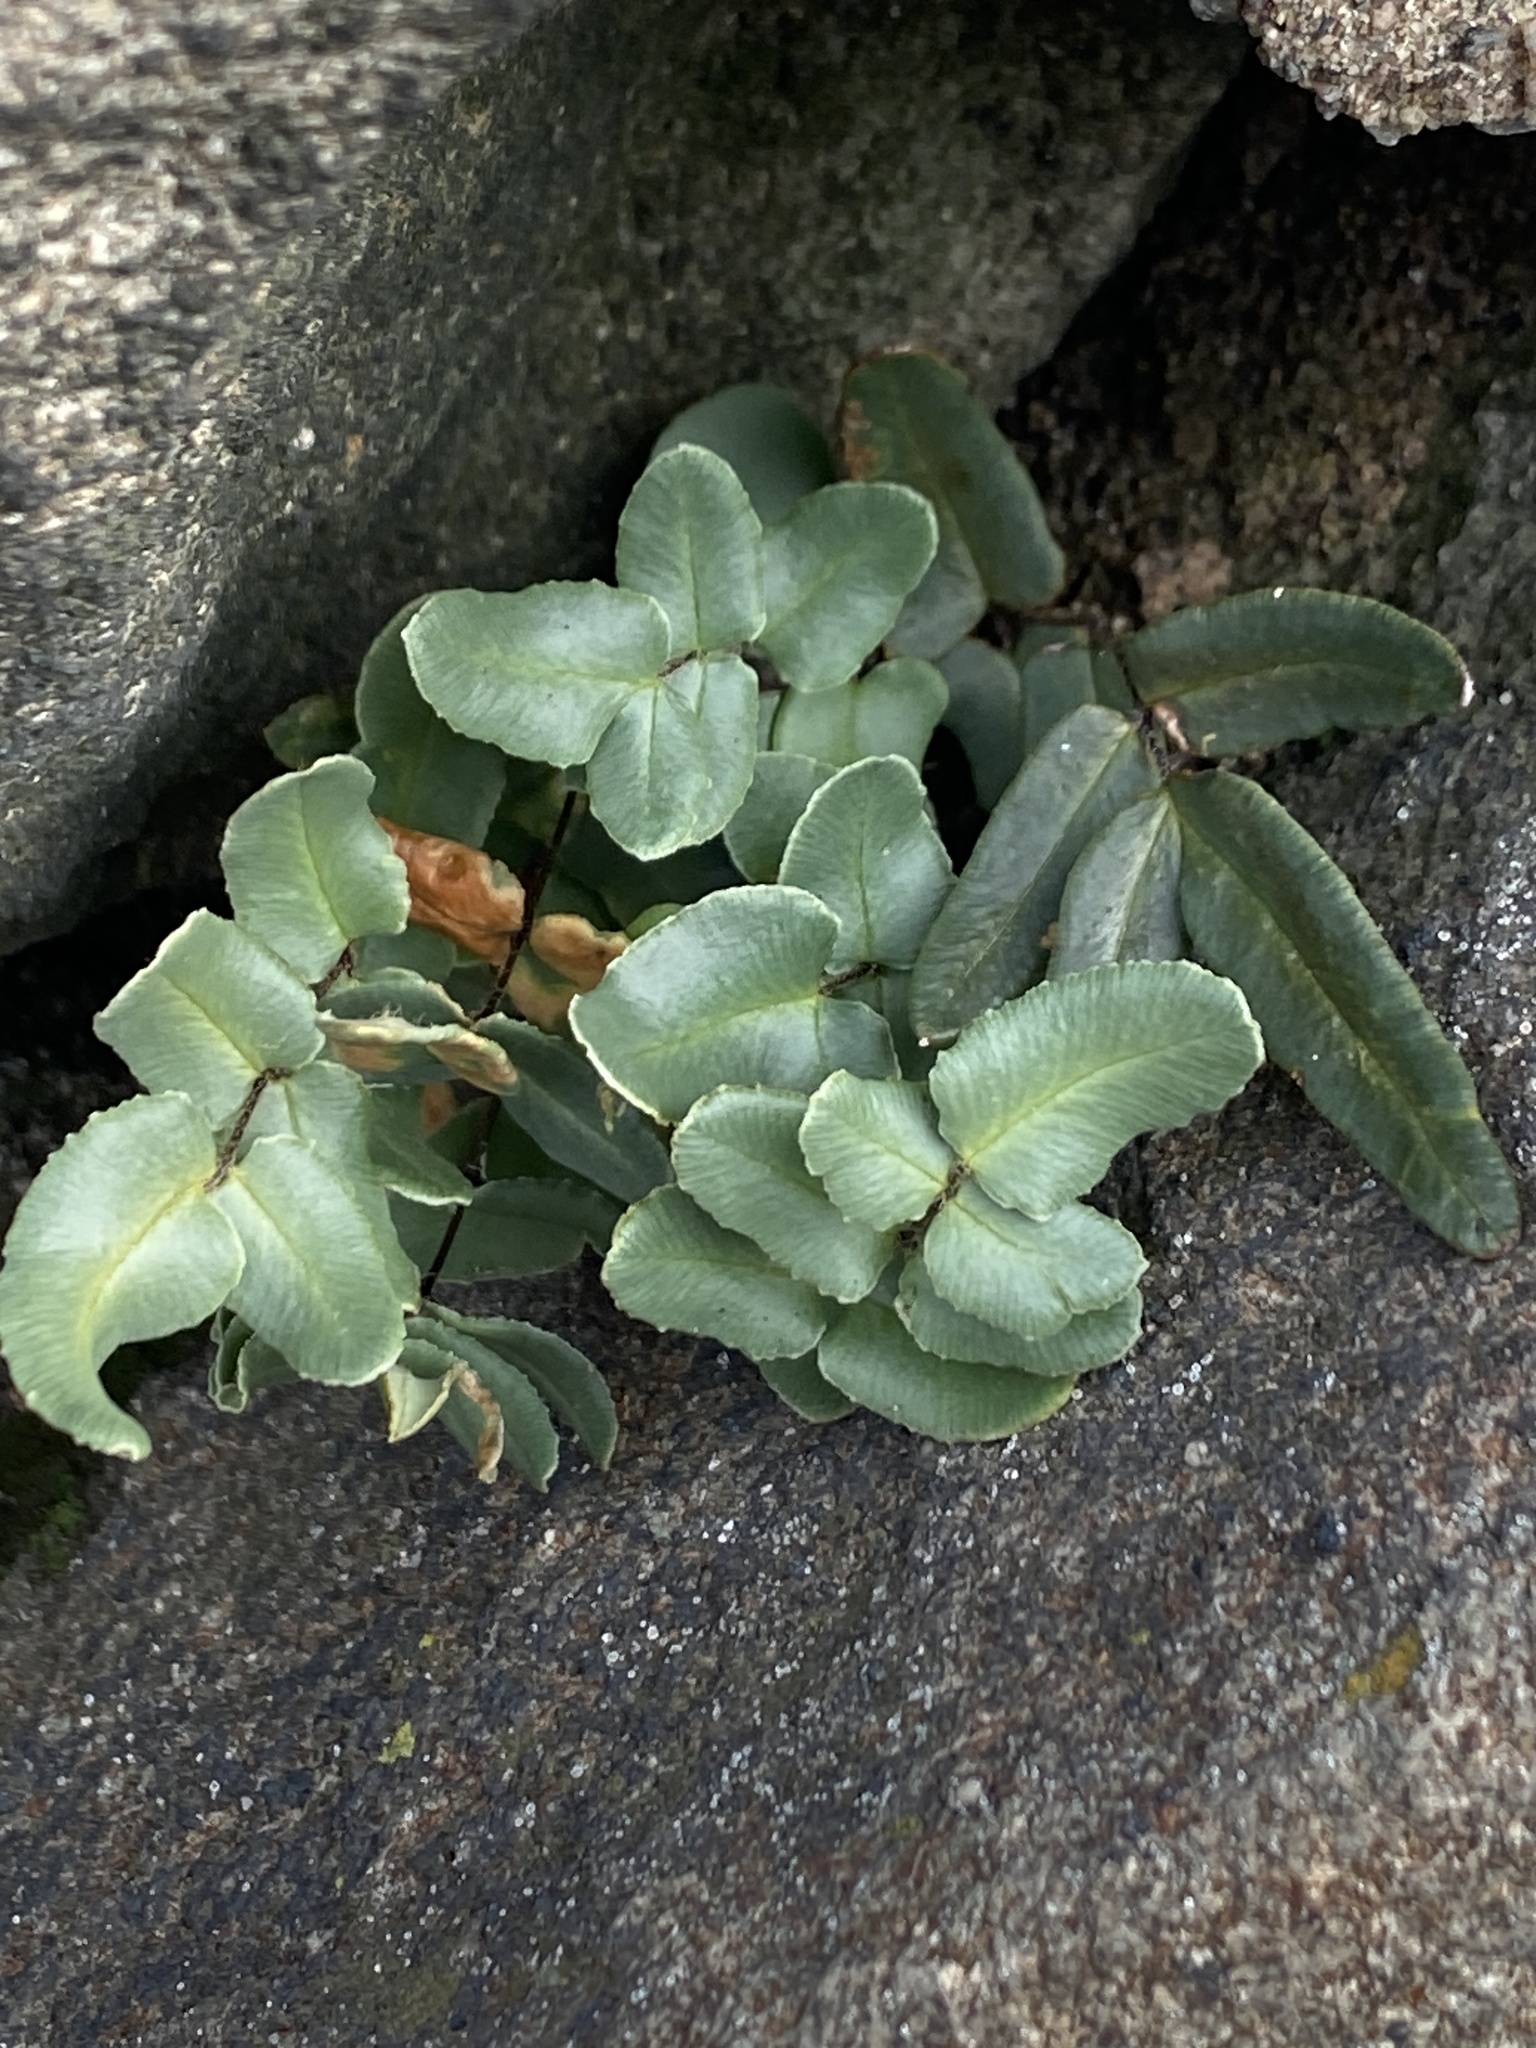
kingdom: Plantae
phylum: Tracheophyta
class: Polypodiopsida
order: Polypodiales
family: Pteridaceae
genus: Pellaea
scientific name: Pellaea atropurpurea
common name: Hairy cliffbrake
